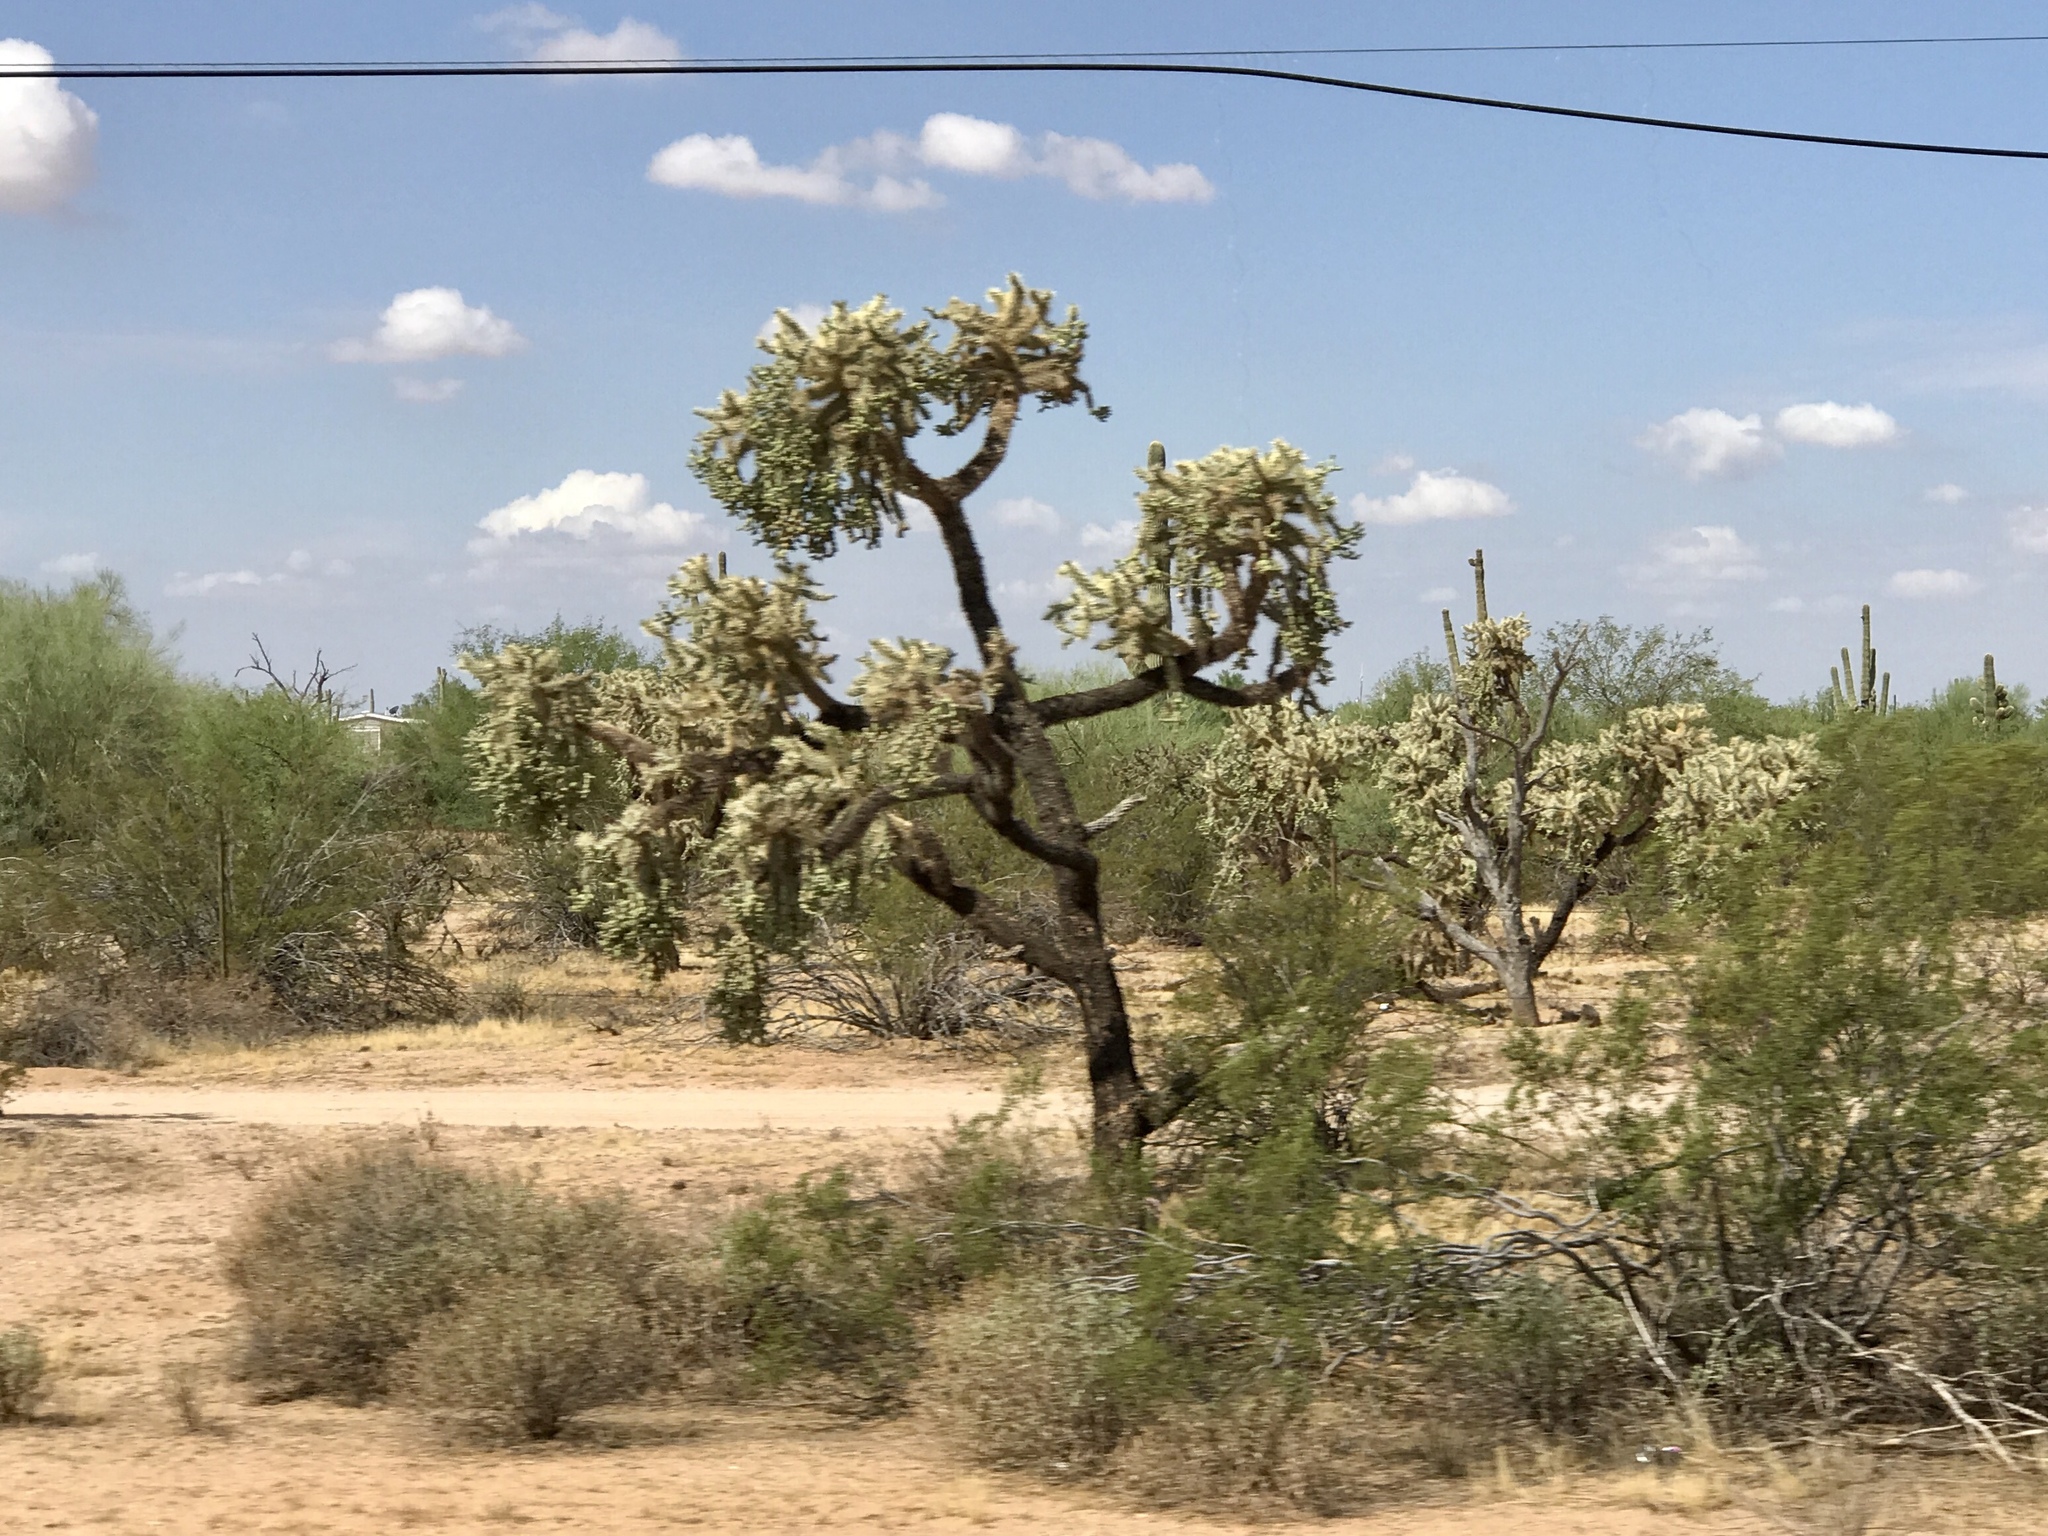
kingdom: Plantae
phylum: Tracheophyta
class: Magnoliopsida
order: Caryophyllales
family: Cactaceae
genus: Cylindropuntia
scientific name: Cylindropuntia fulgida
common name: Jumping cholla
